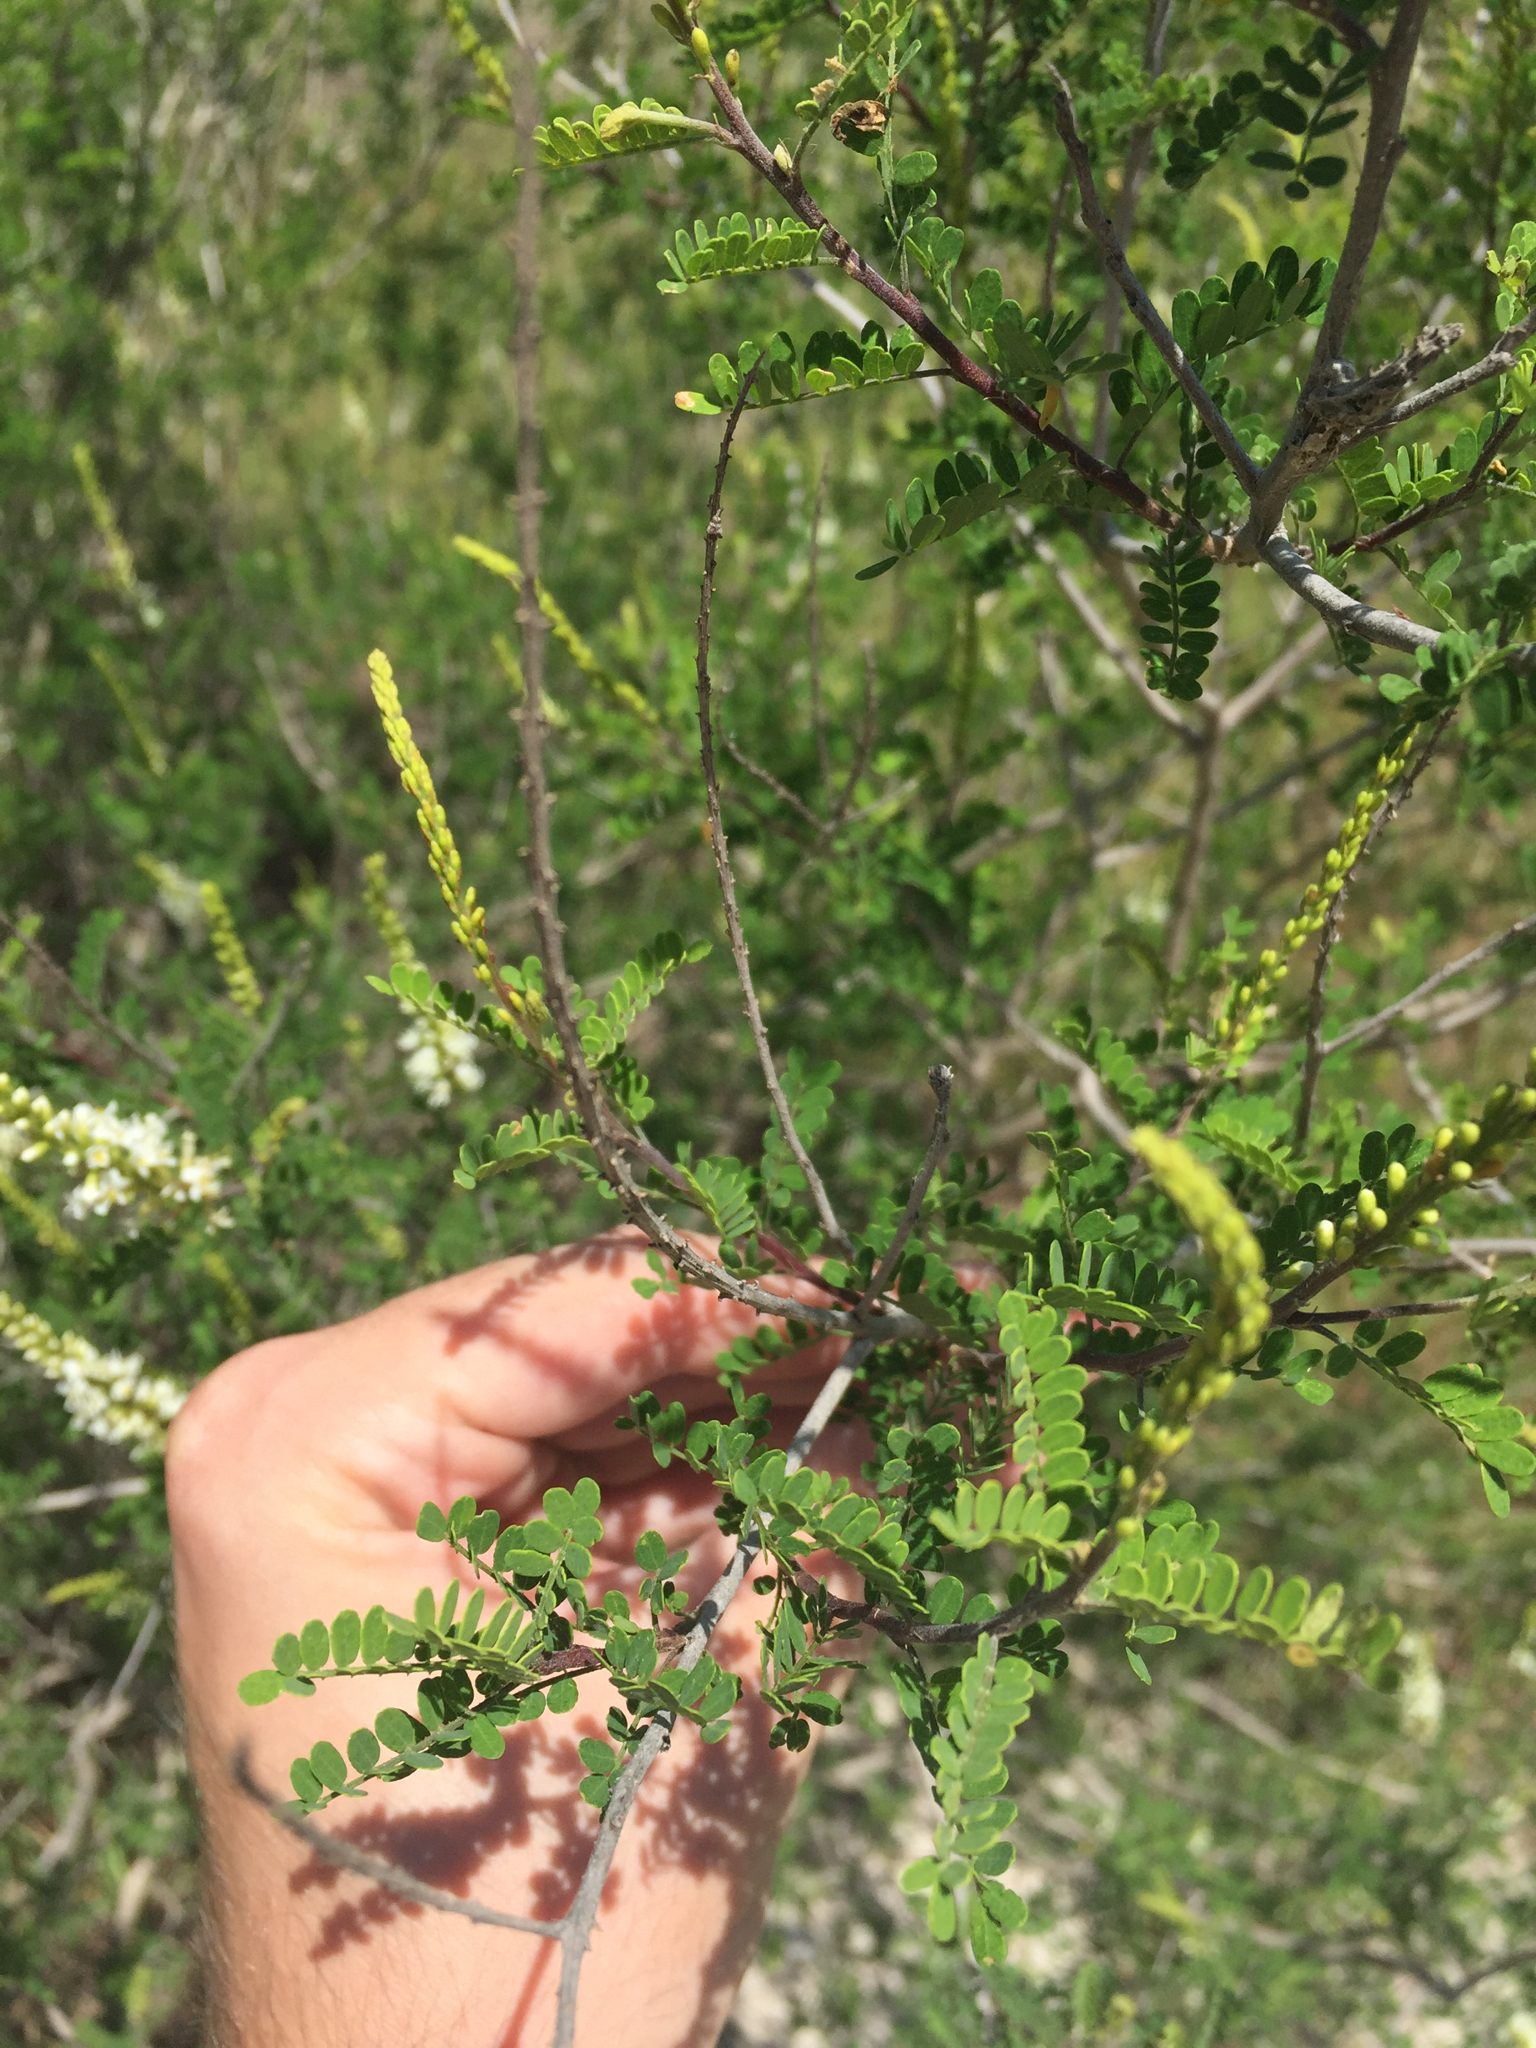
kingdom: Plantae
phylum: Tracheophyta
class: Magnoliopsida
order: Fabales
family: Fabaceae
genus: Eysenhardtia
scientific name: Eysenhardtia texana
